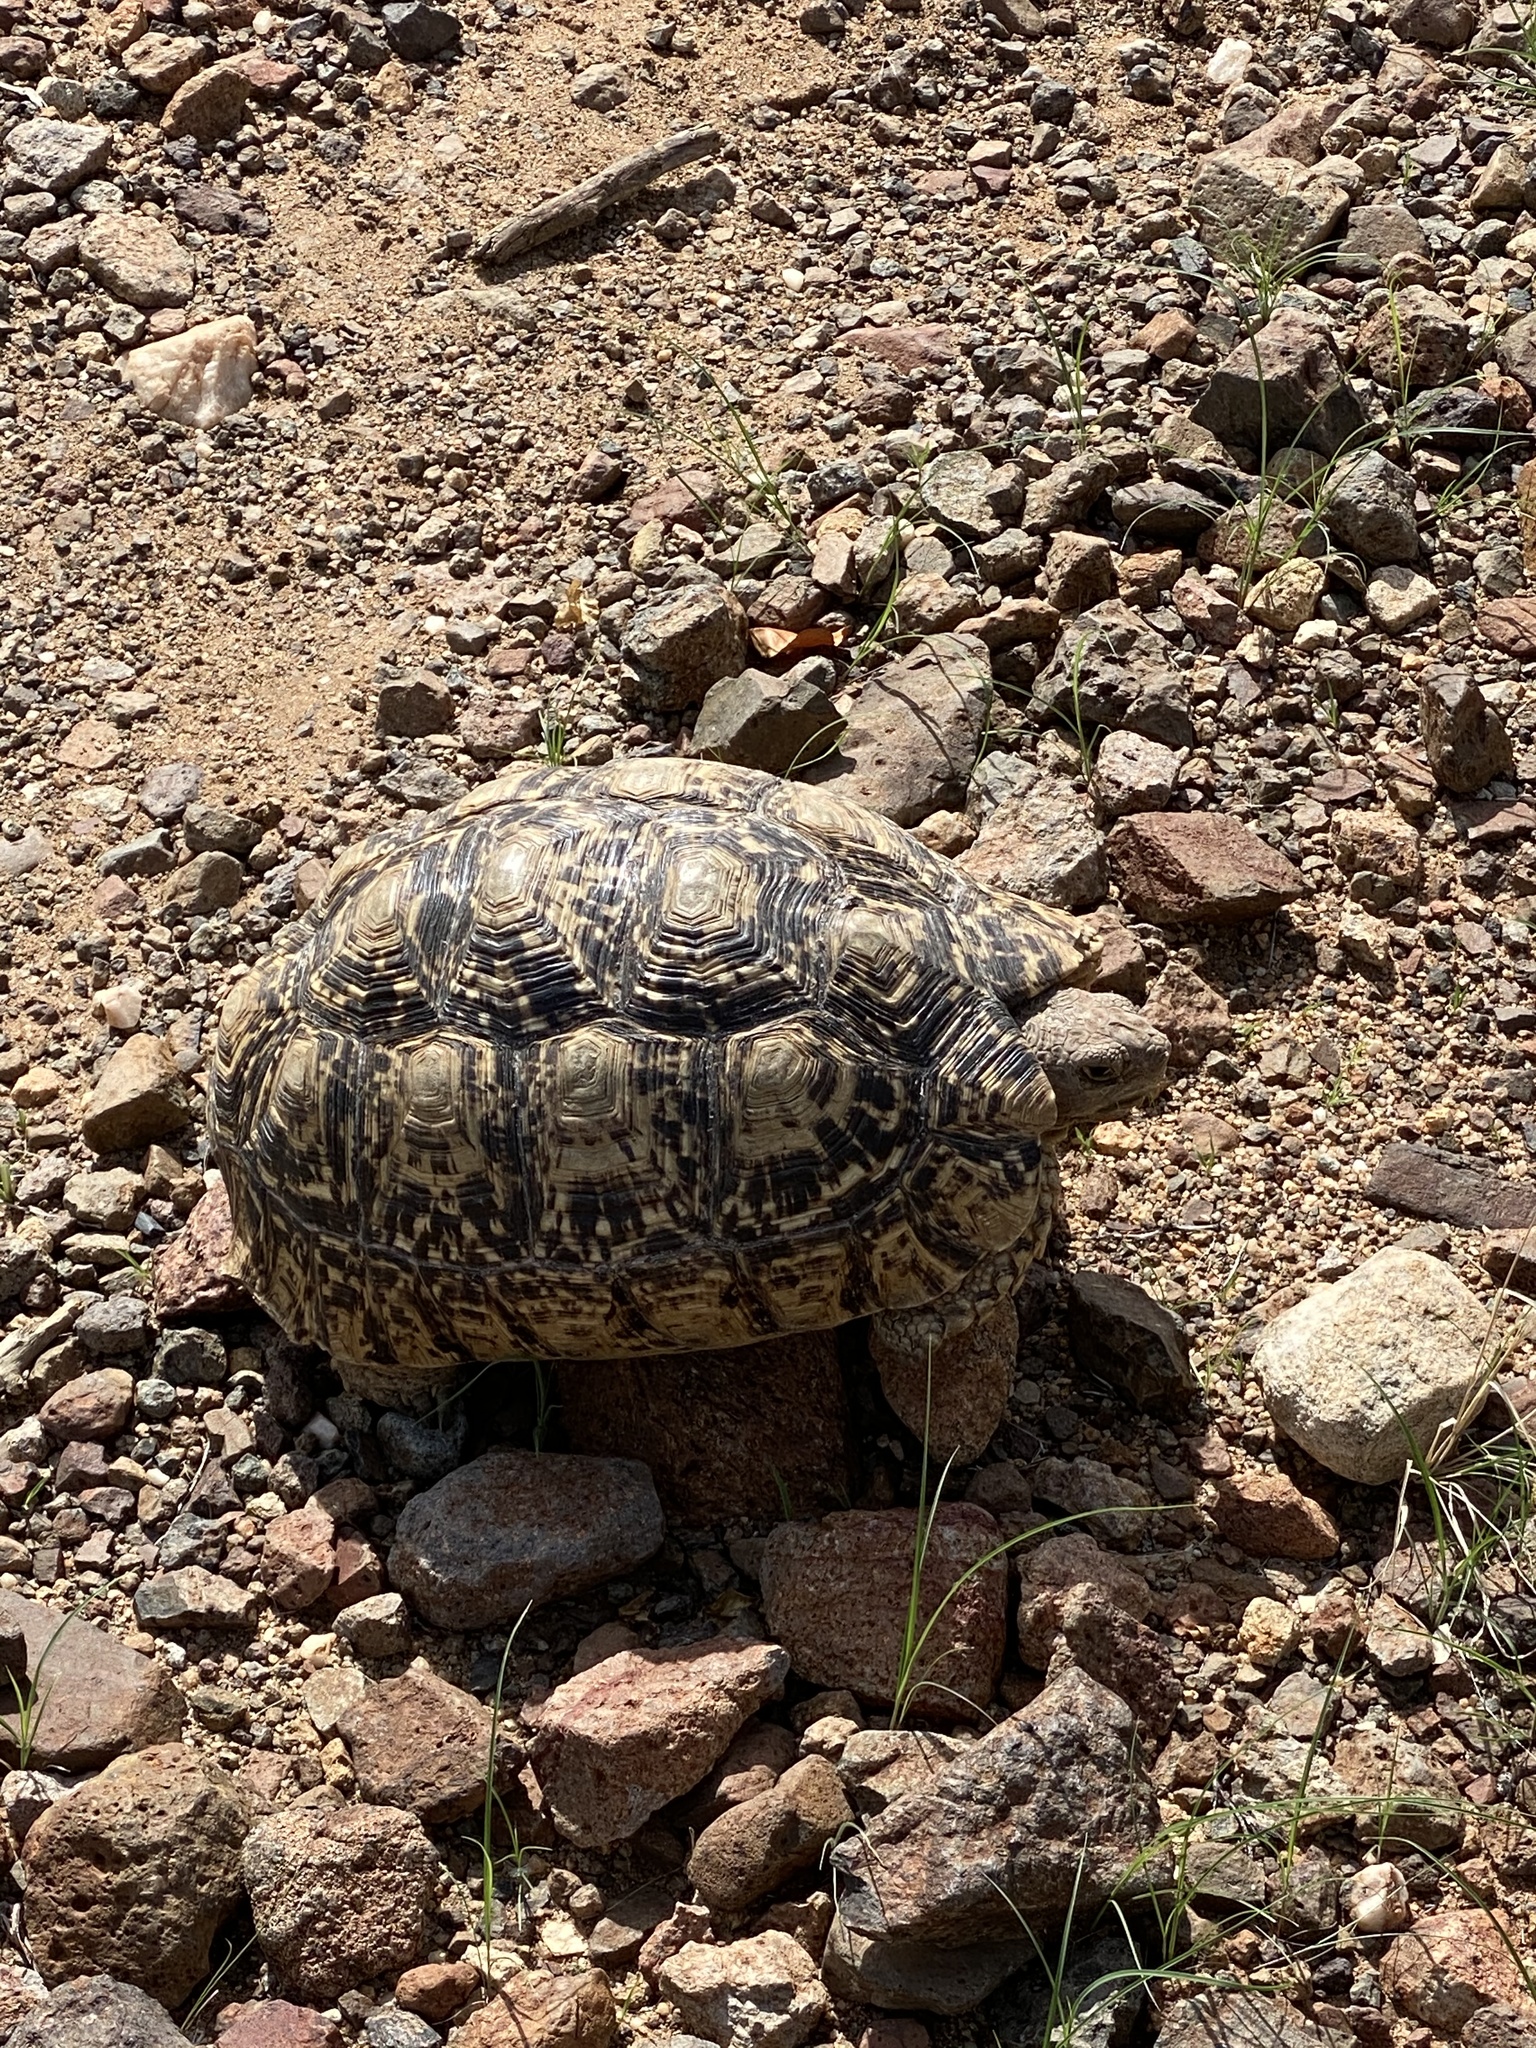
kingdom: Animalia
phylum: Chordata
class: Testudines
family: Testudinidae
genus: Stigmochelys
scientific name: Stigmochelys pardalis
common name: Leopard tortoise
